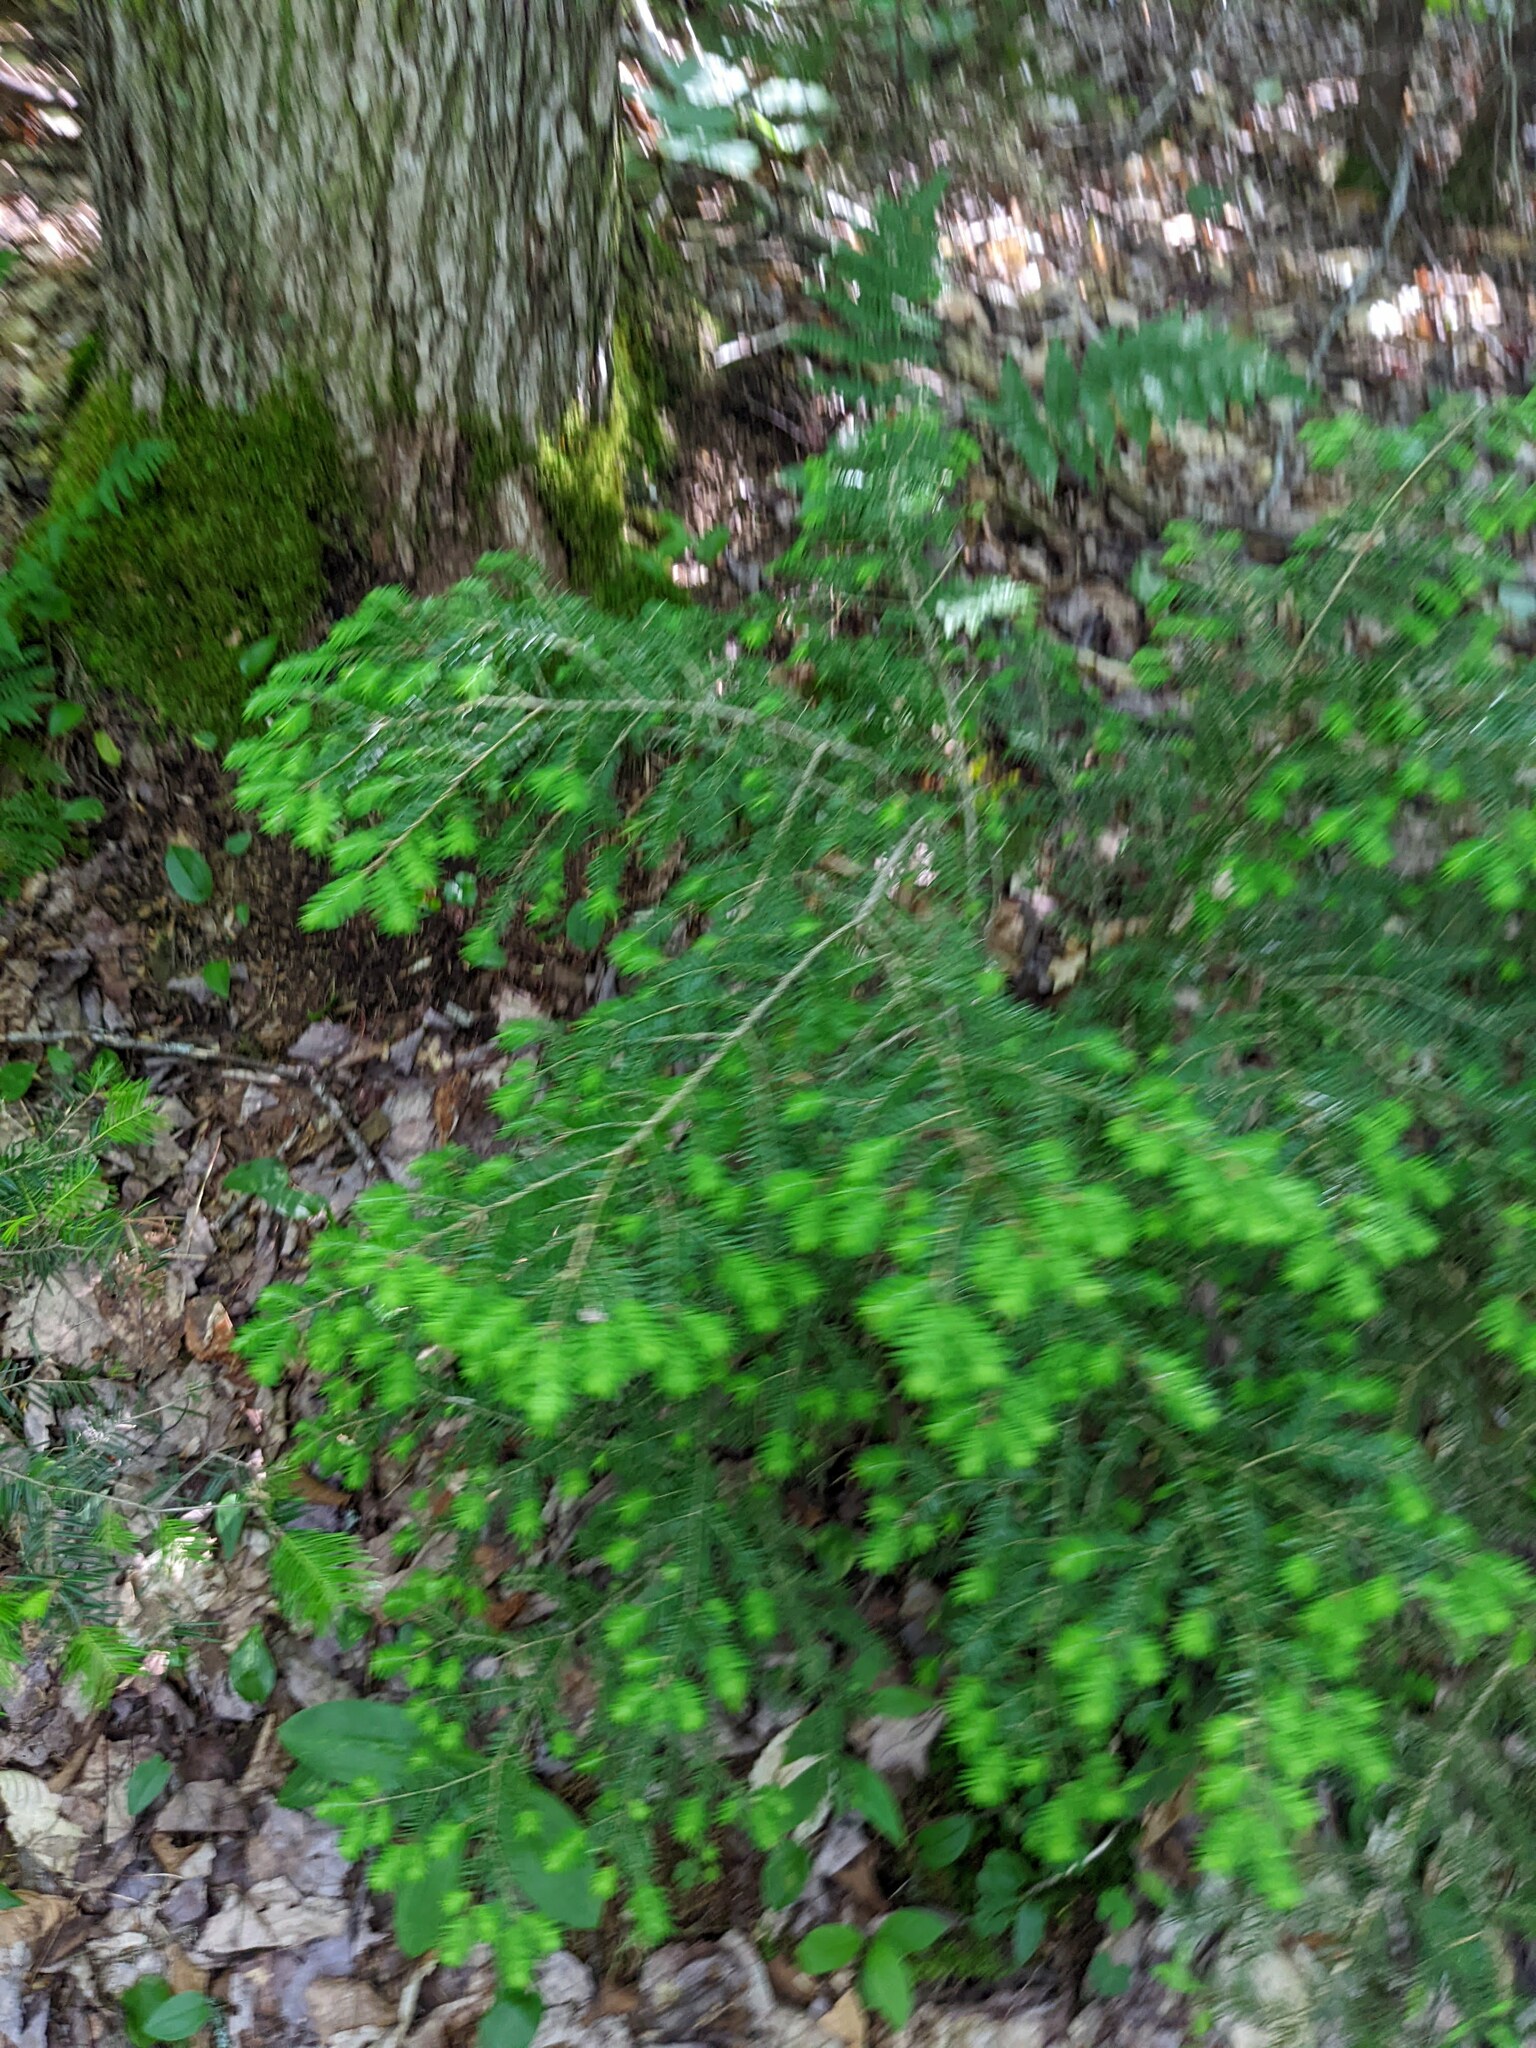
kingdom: Plantae
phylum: Tracheophyta
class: Pinopsida
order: Pinales
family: Pinaceae
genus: Tsuga
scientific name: Tsuga canadensis
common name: Eastern hemlock
